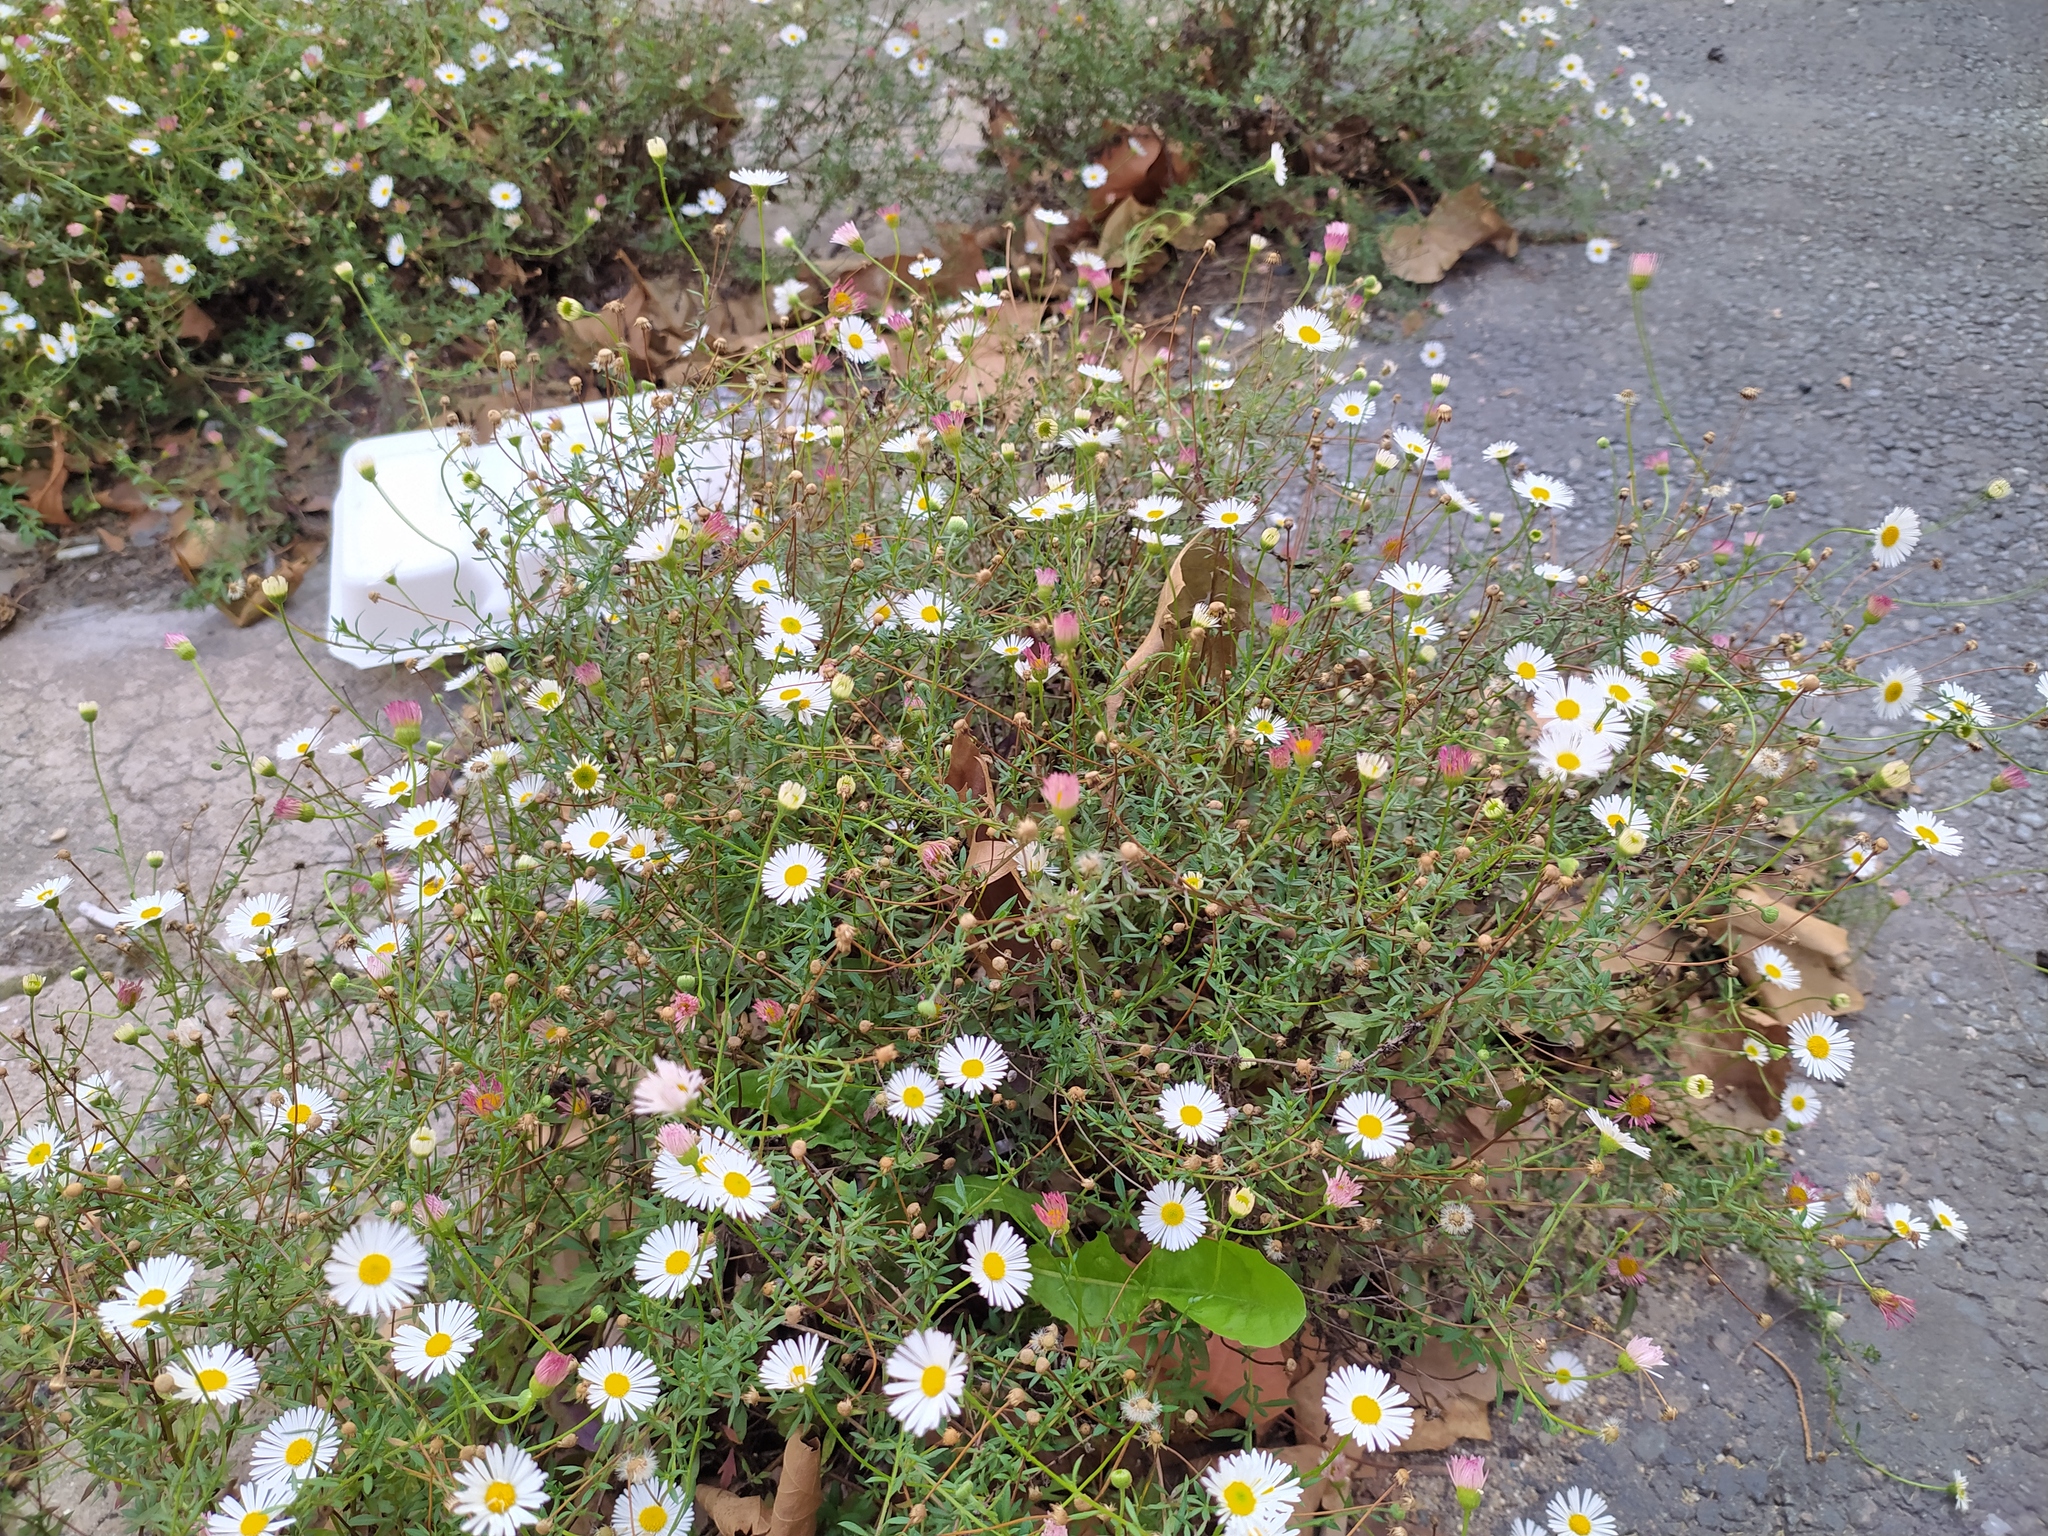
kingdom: Plantae
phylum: Tracheophyta
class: Magnoliopsida
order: Asterales
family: Asteraceae
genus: Erigeron
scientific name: Erigeron karvinskianus
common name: Mexican fleabane
